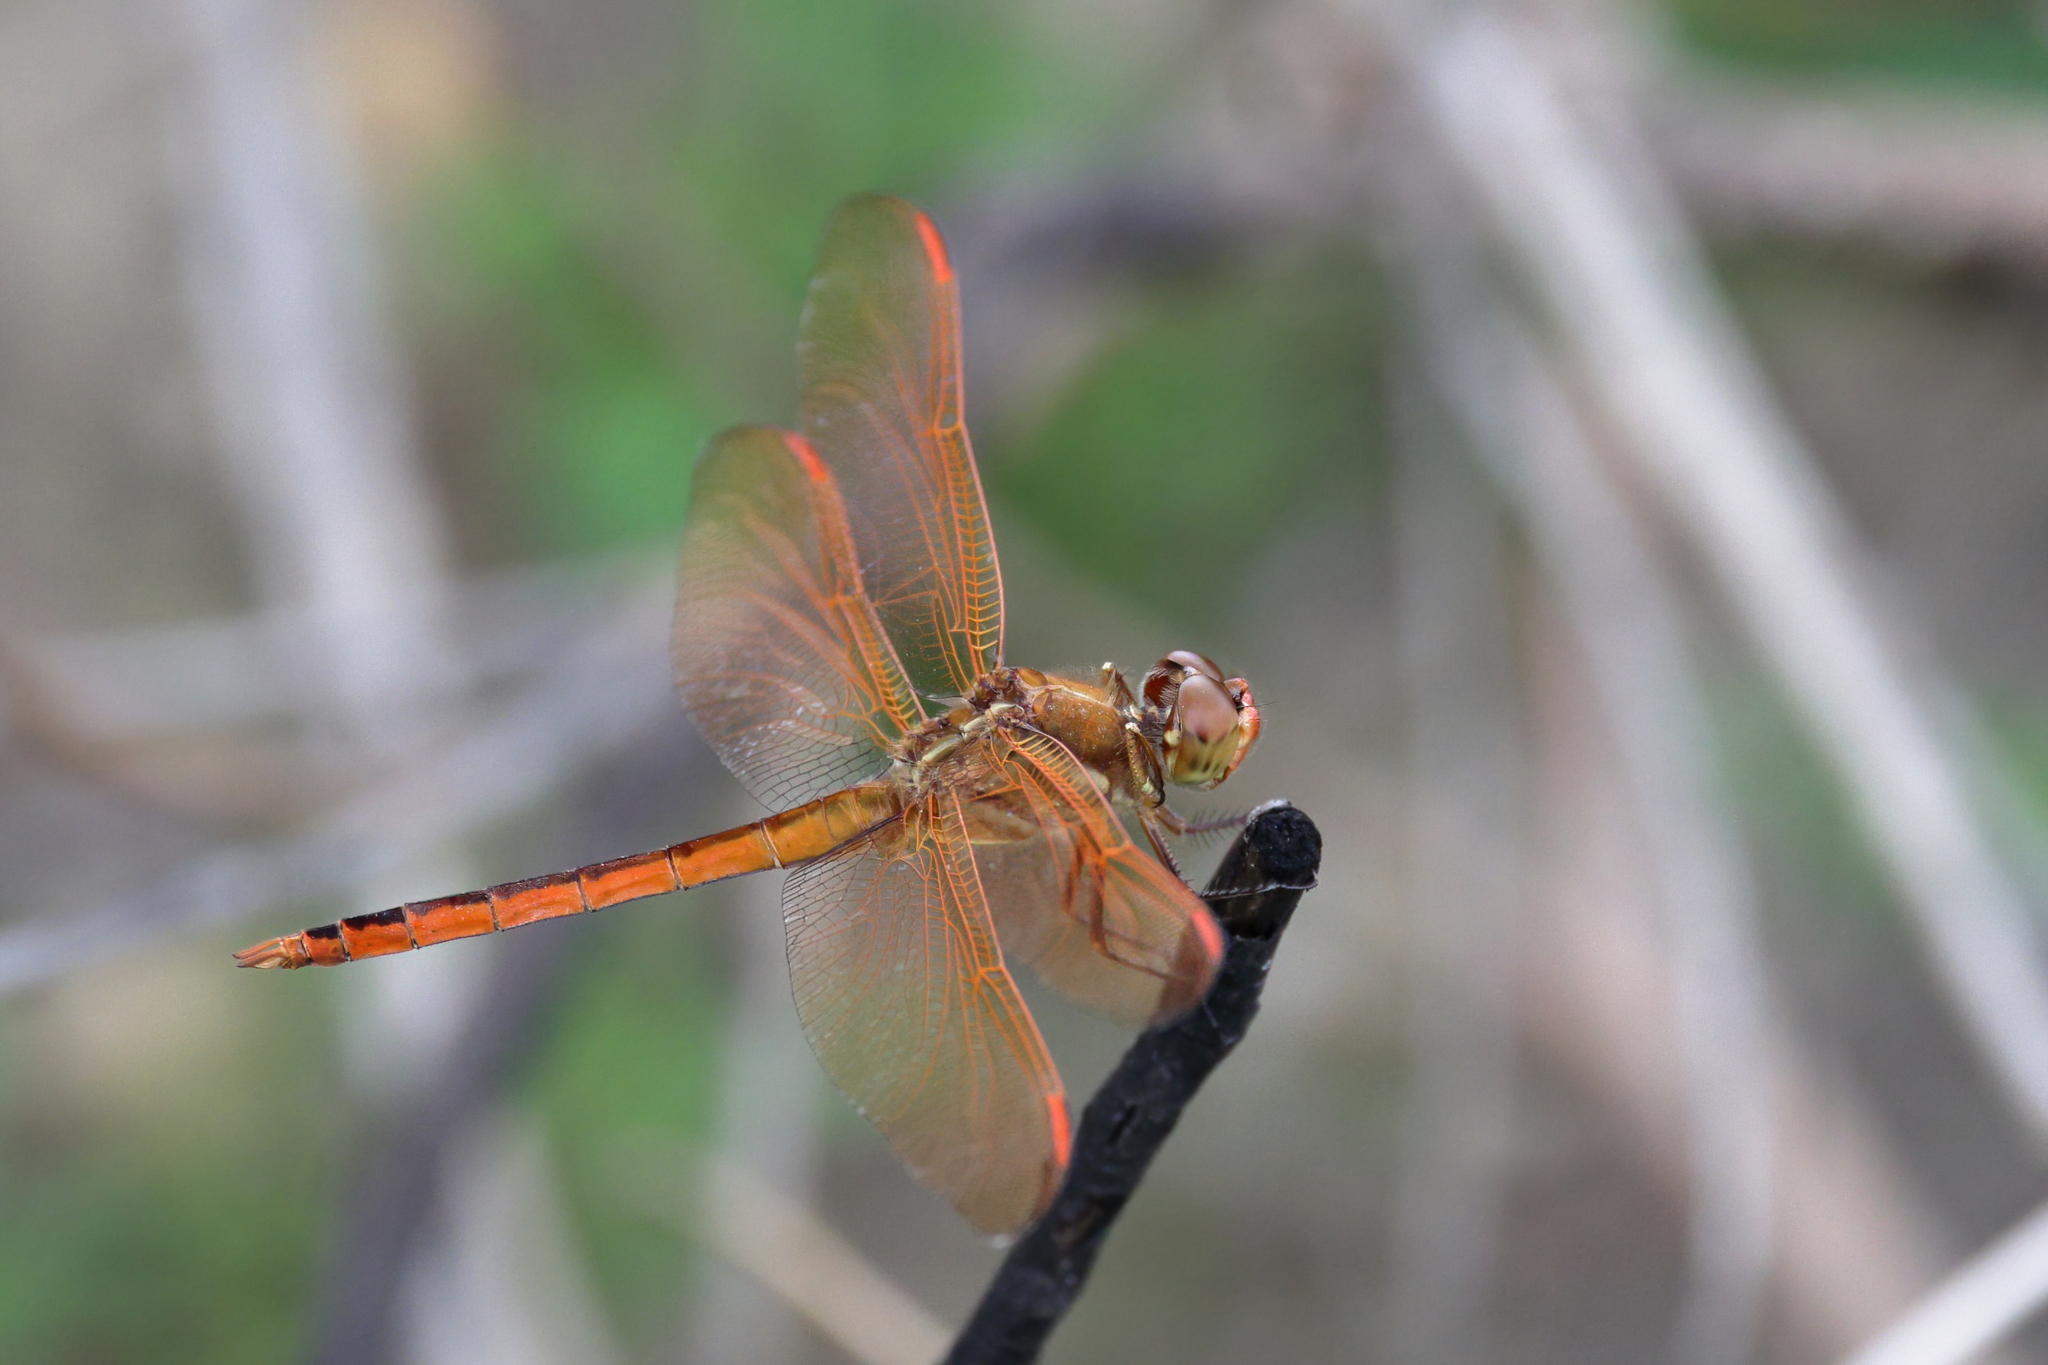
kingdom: Animalia
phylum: Arthropoda
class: Insecta
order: Odonata
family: Libellulidae
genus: Libellula
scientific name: Libellula auripennis
